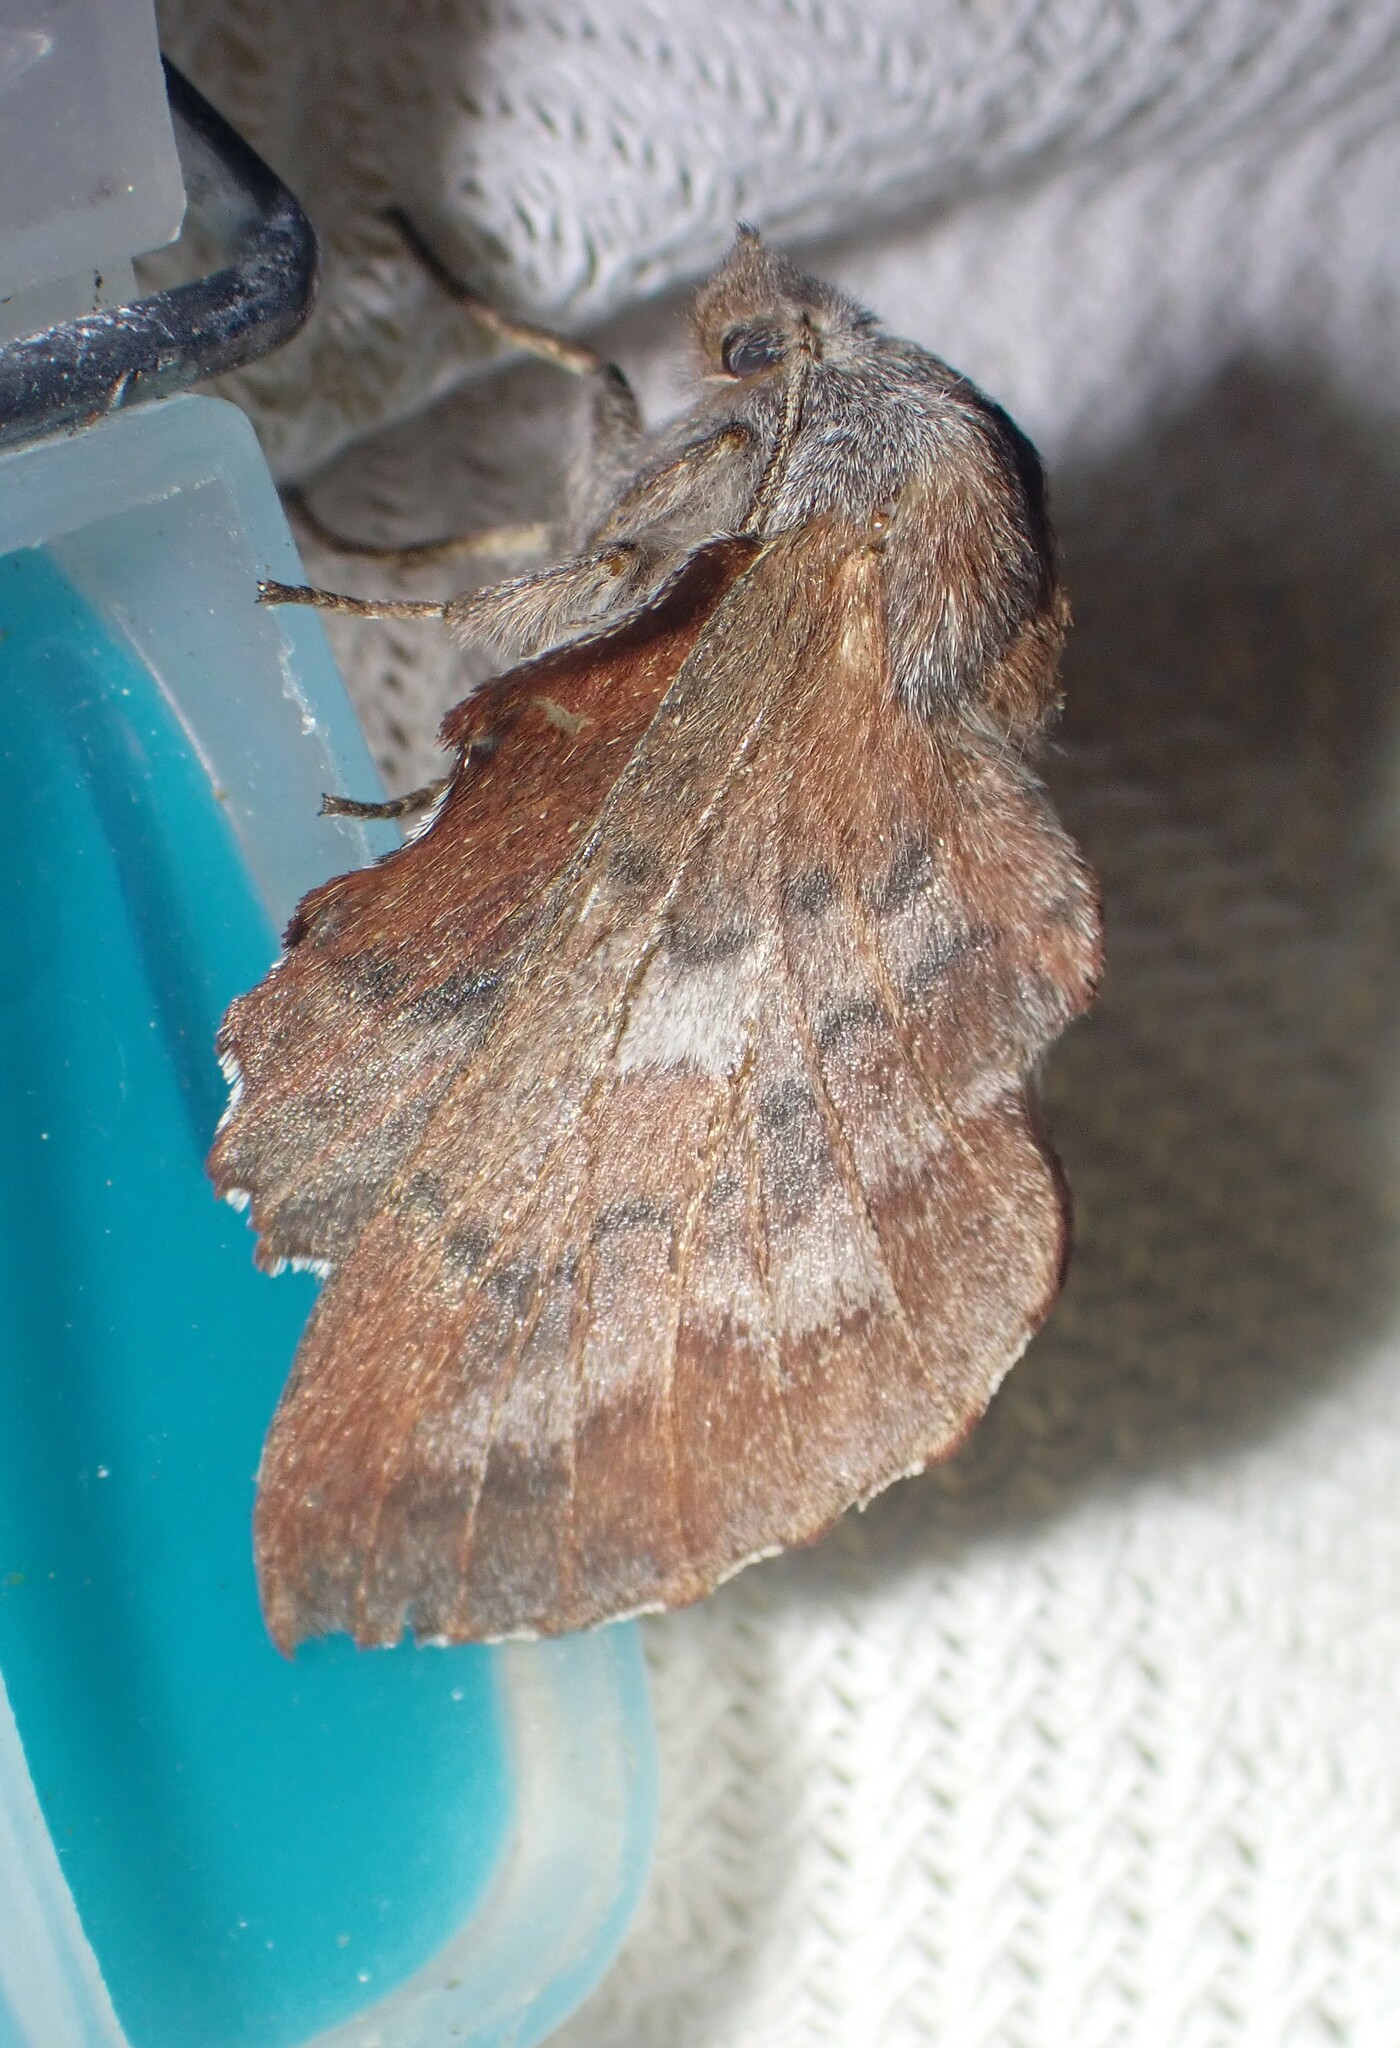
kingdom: Animalia
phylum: Arthropoda
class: Insecta
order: Lepidoptera
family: Lasiocampidae
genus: Phyllodesma
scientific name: Phyllodesma americana
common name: American lappet moth
